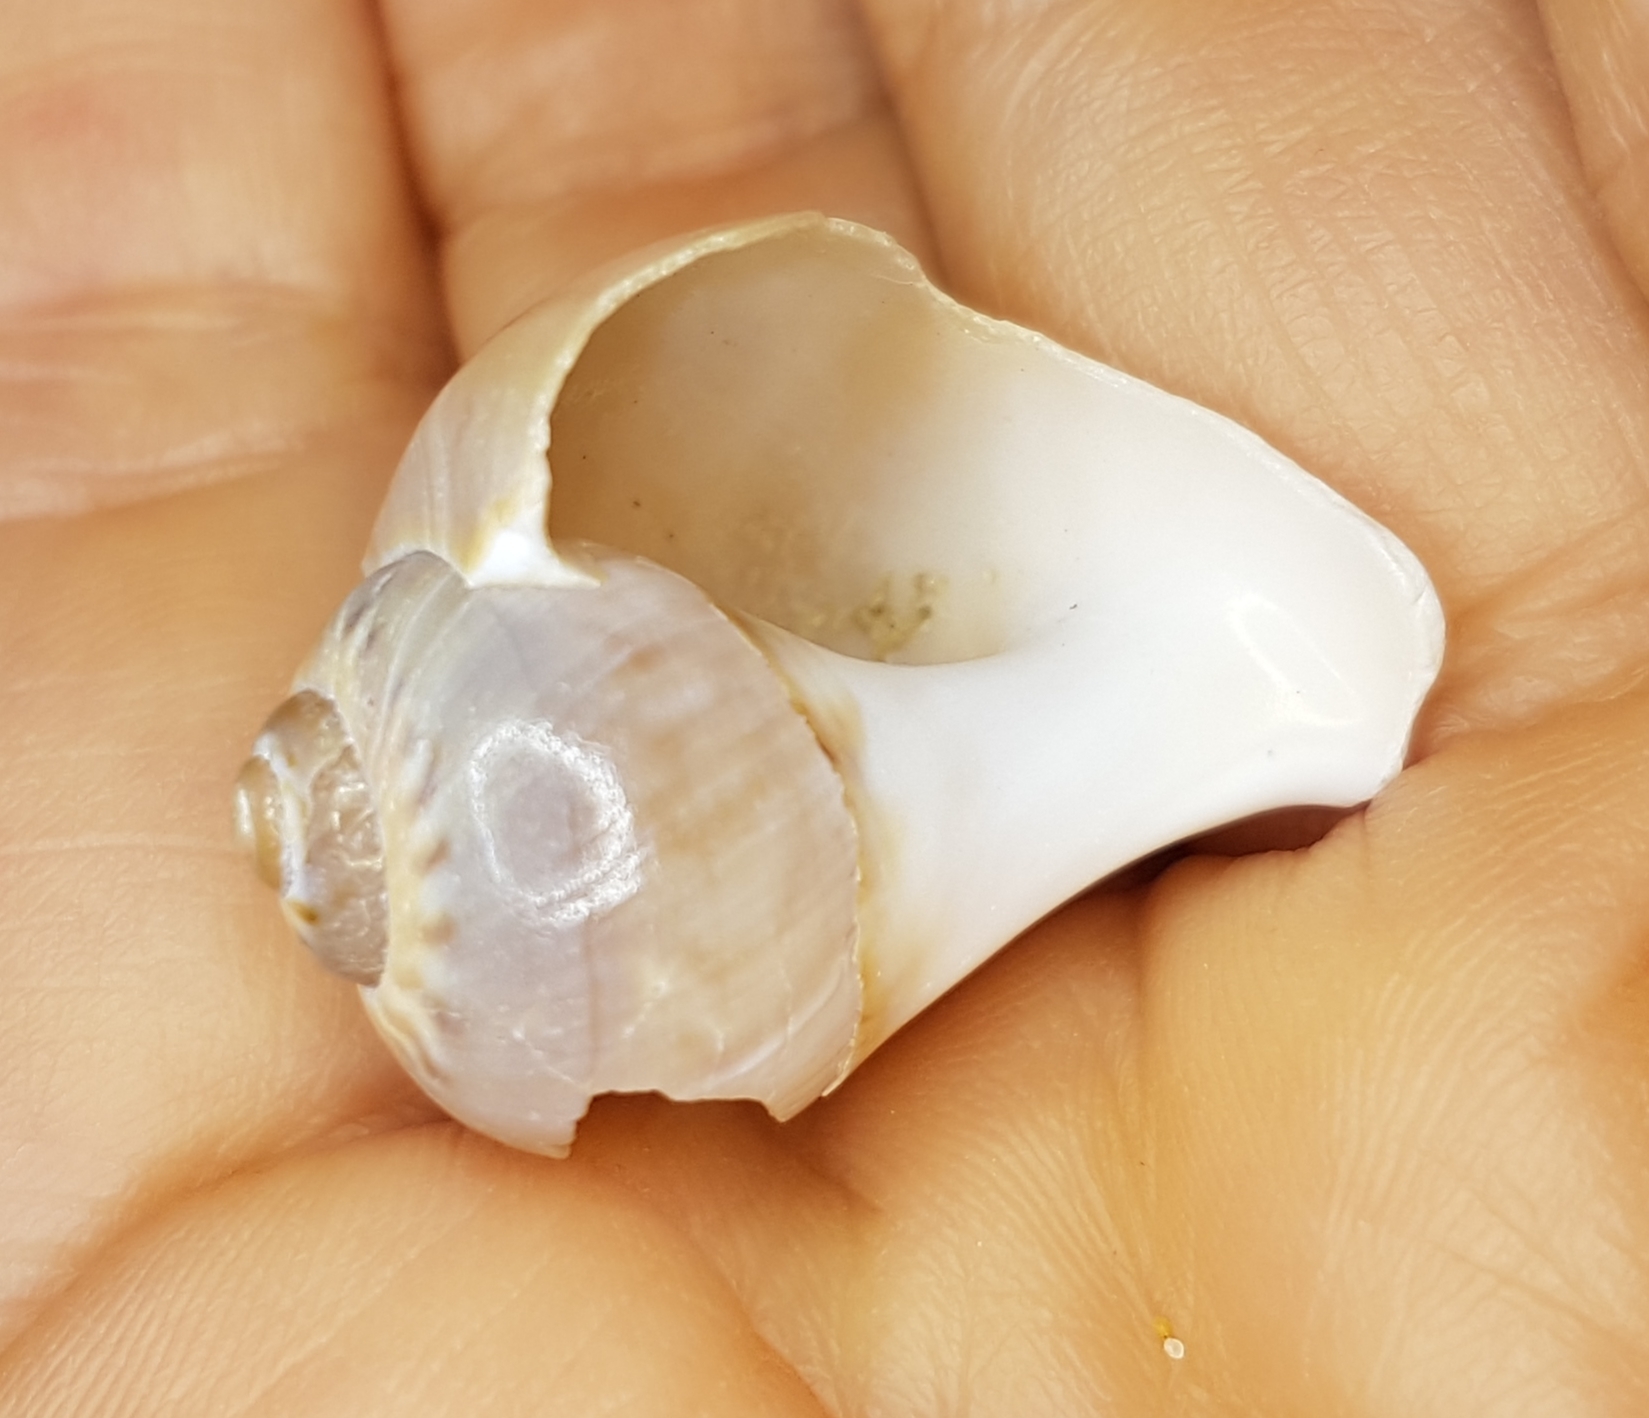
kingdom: Animalia
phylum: Mollusca
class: Gastropoda
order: Littorinimorpha
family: Naticidae
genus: Euspira
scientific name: Euspira catena
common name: Necklace shell
